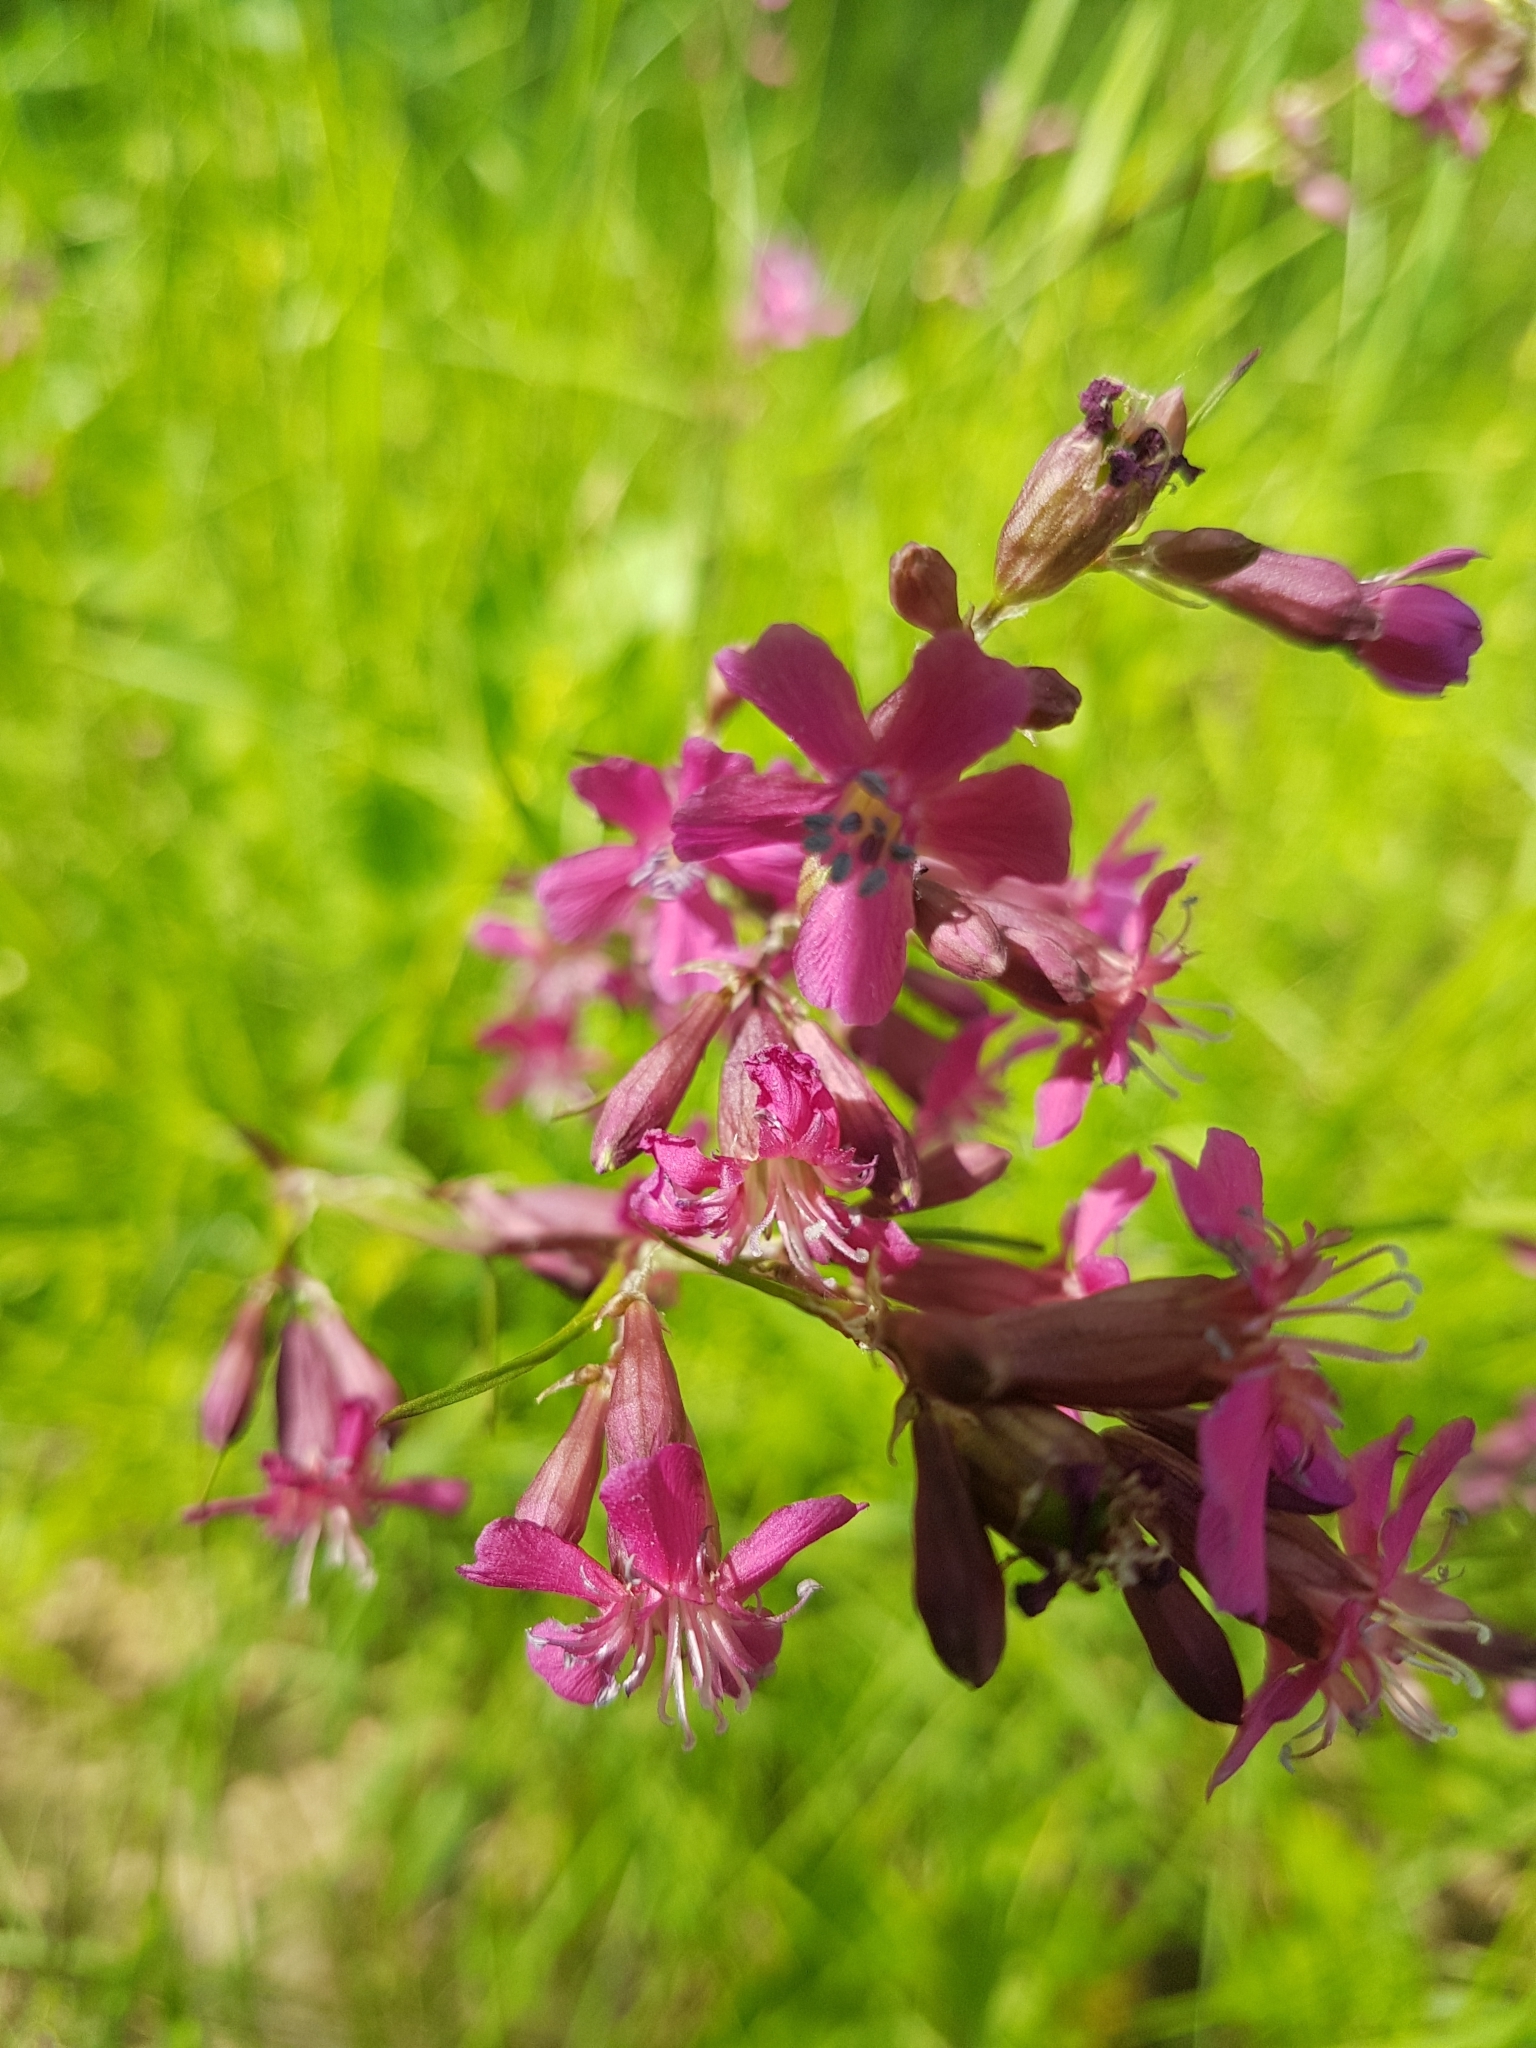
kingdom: Plantae
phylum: Tracheophyta
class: Magnoliopsida
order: Caryophyllales
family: Caryophyllaceae
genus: Viscaria
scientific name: Viscaria vulgaris
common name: Clammy campion
